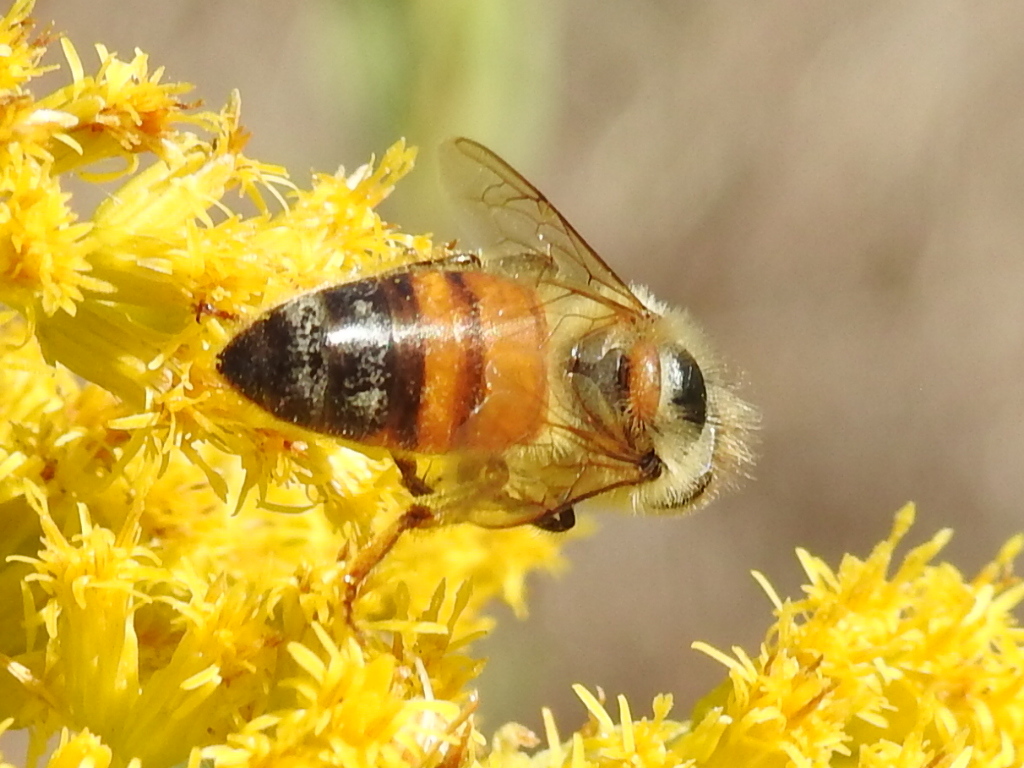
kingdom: Animalia
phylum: Arthropoda
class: Insecta
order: Hymenoptera
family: Apidae
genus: Apis
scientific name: Apis mellifera
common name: Honey bee
